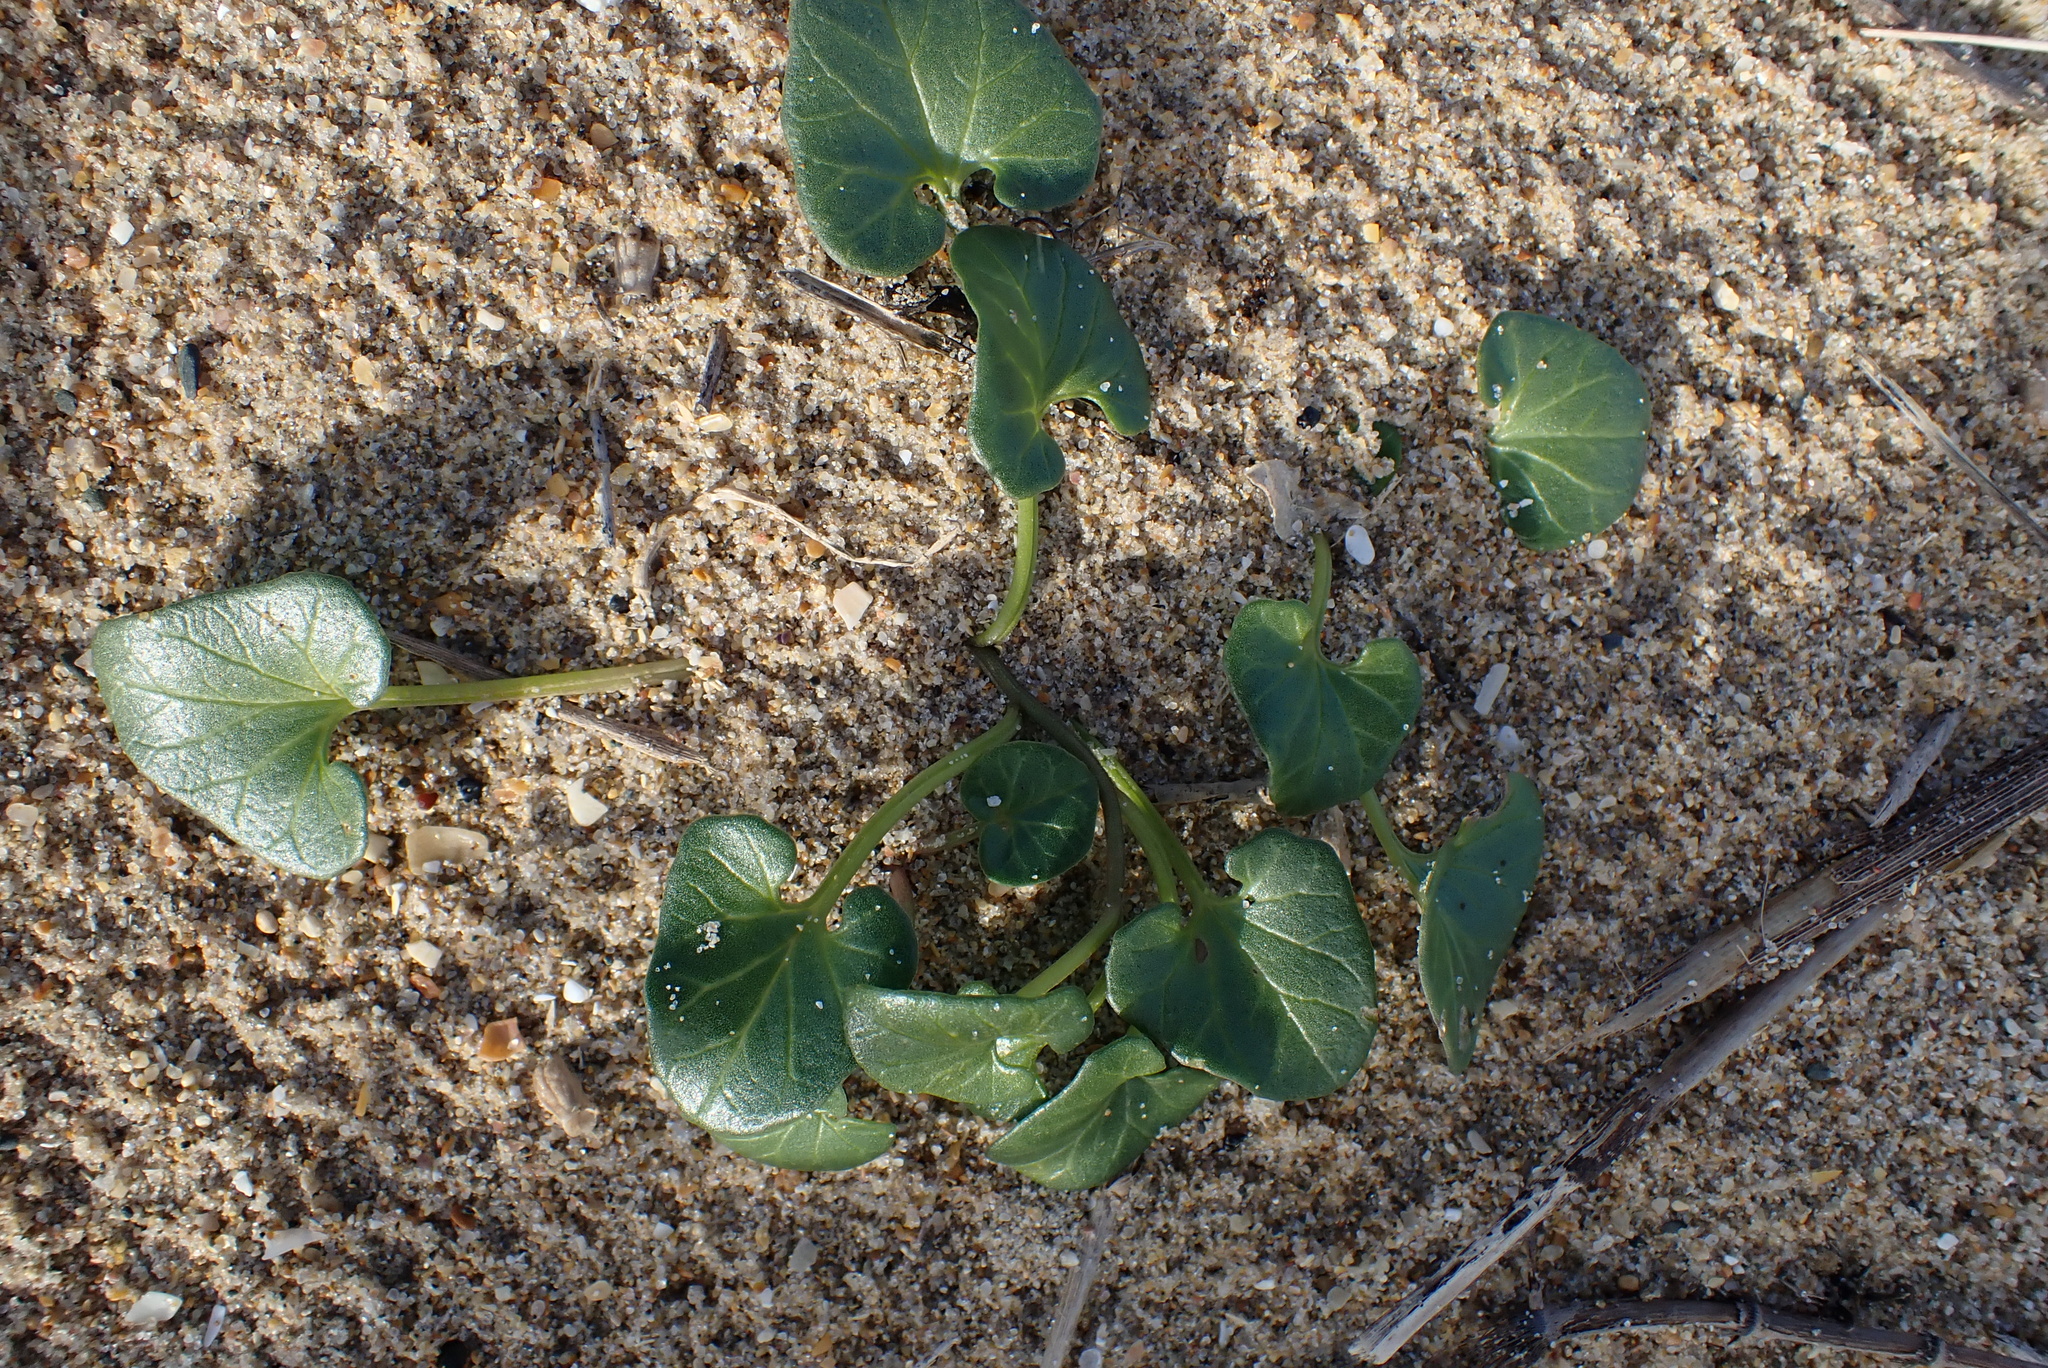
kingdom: Plantae
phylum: Tracheophyta
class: Magnoliopsida
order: Solanales
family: Convolvulaceae
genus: Calystegia
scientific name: Calystegia soldanella
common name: Sea bindweed
